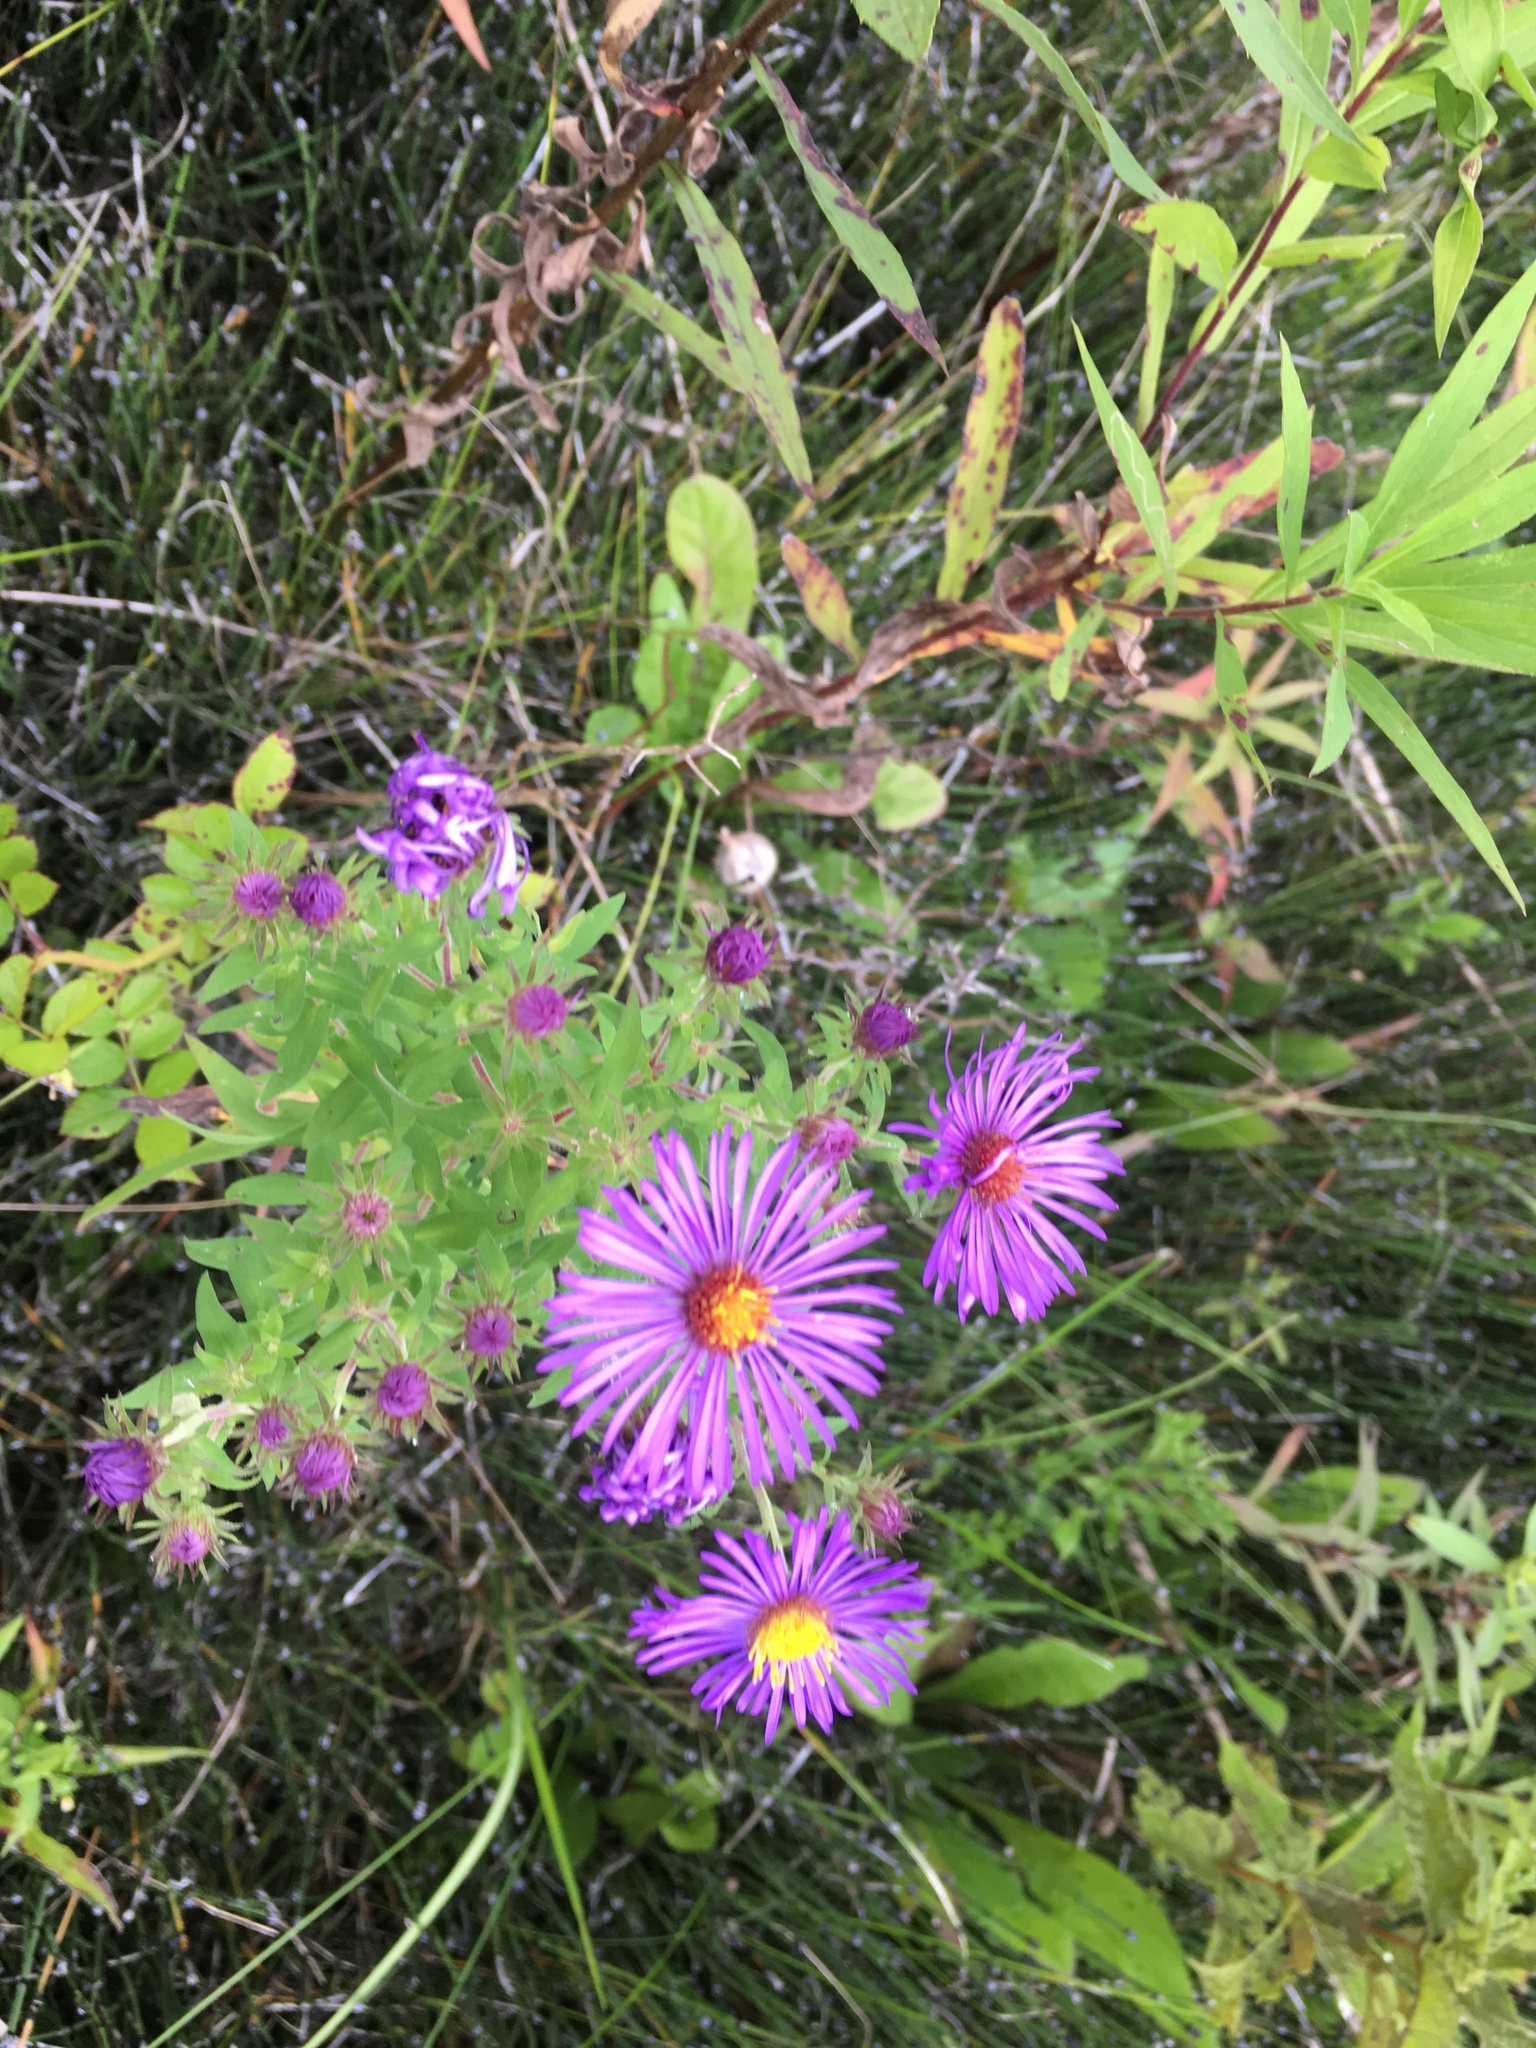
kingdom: Plantae
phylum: Tracheophyta
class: Magnoliopsida
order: Asterales
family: Asteraceae
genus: Symphyotrichum
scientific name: Symphyotrichum novae-angliae
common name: Michaelmas daisy
